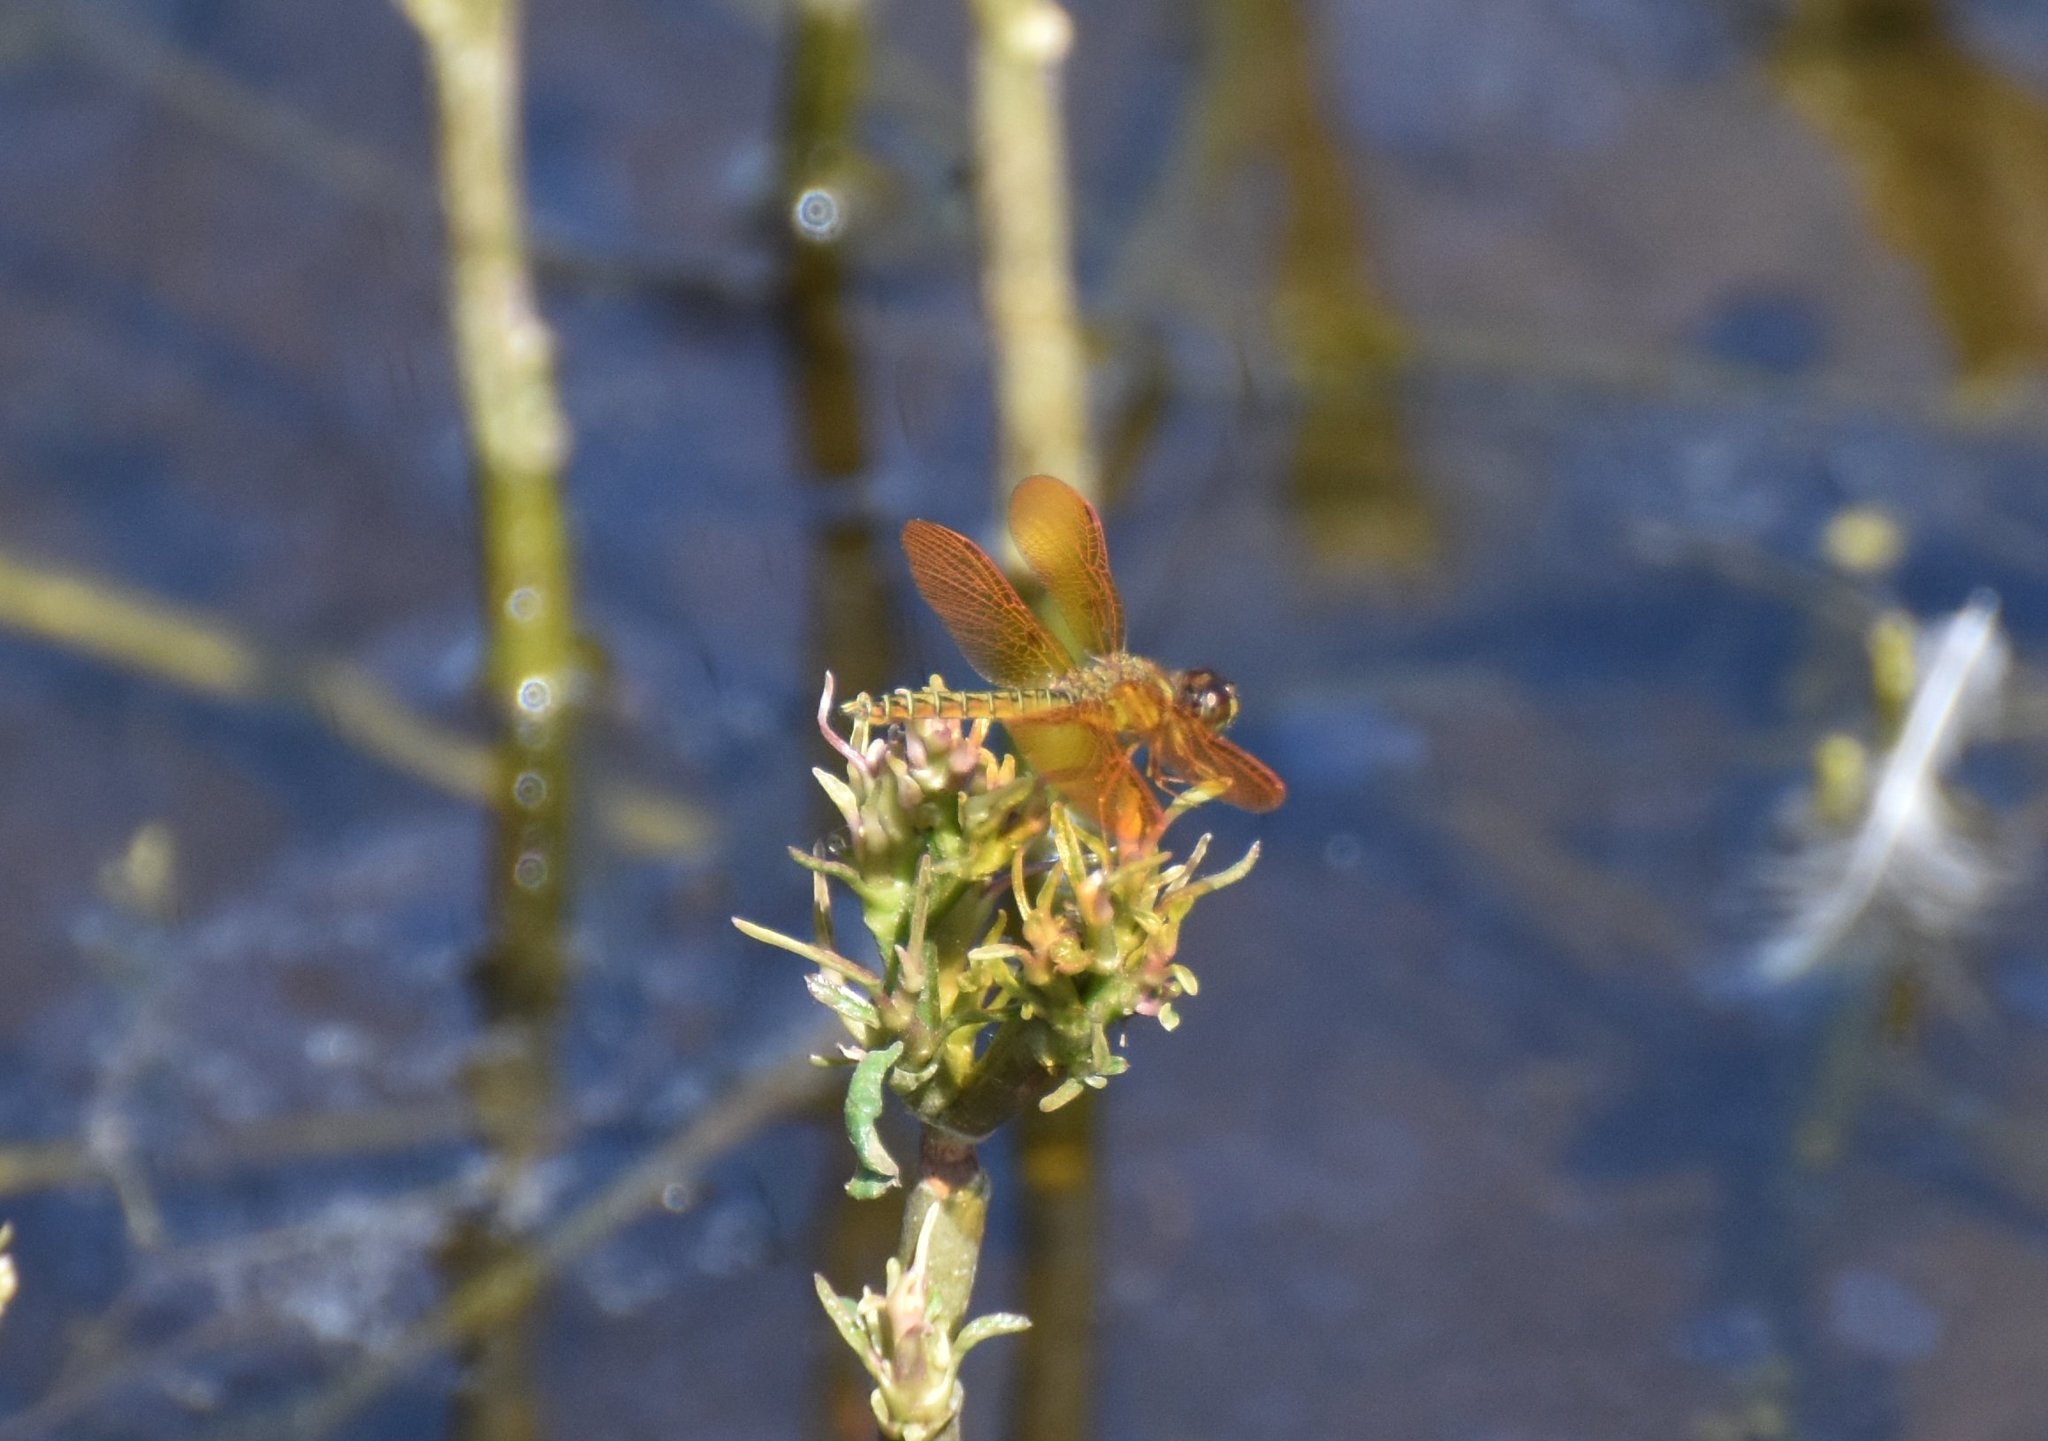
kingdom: Animalia
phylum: Arthropoda
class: Insecta
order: Odonata
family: Libellulidae
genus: Perithemis
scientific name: Perithemis tenera
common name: Eastern amberwing
